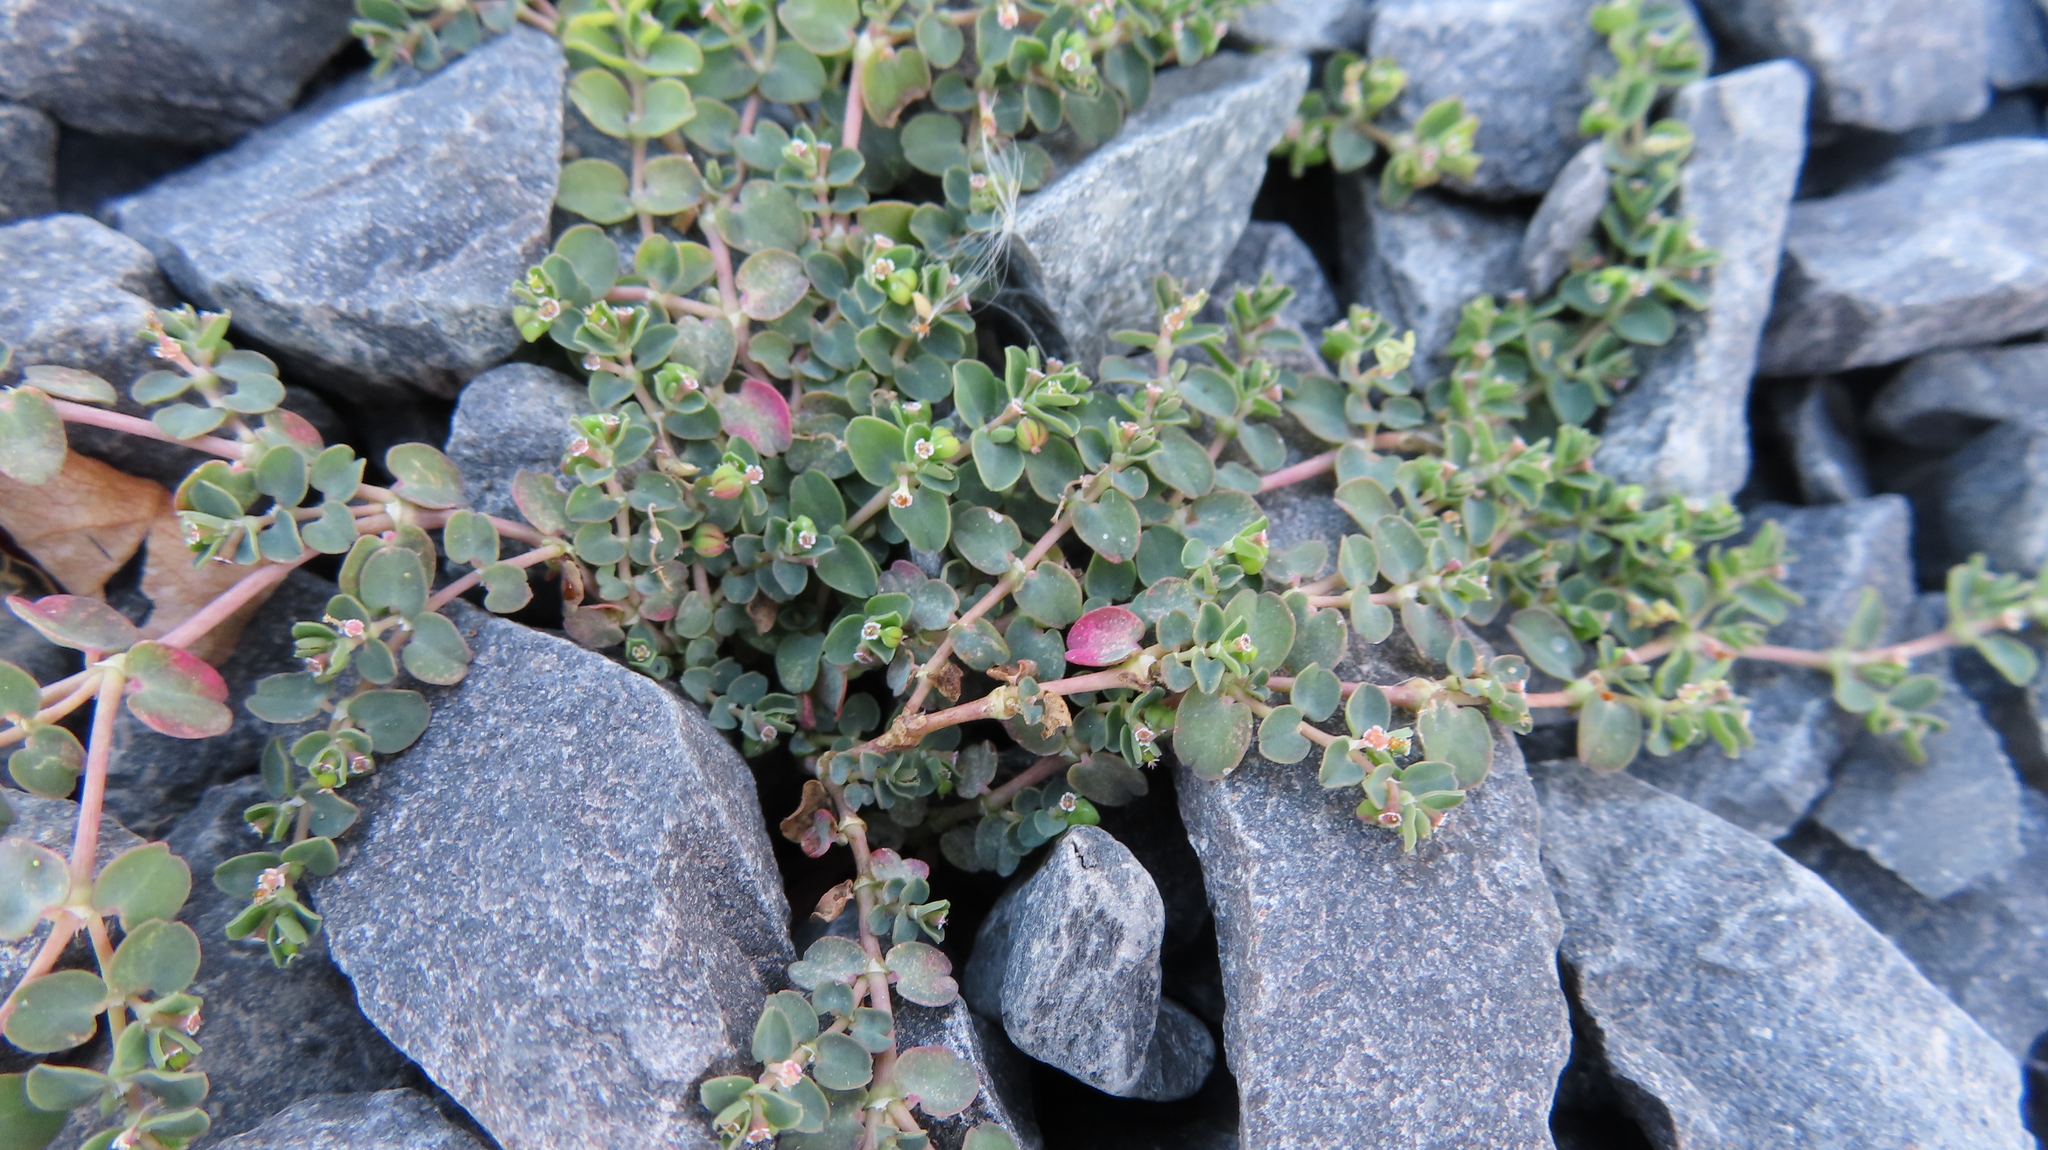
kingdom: Plantae
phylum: Tracheophyta
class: Magnoliopsida
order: Malpighiales
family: Euphorbiaceae
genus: Euphorbia
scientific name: Euphorbia serpens
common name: Matted sandmat
